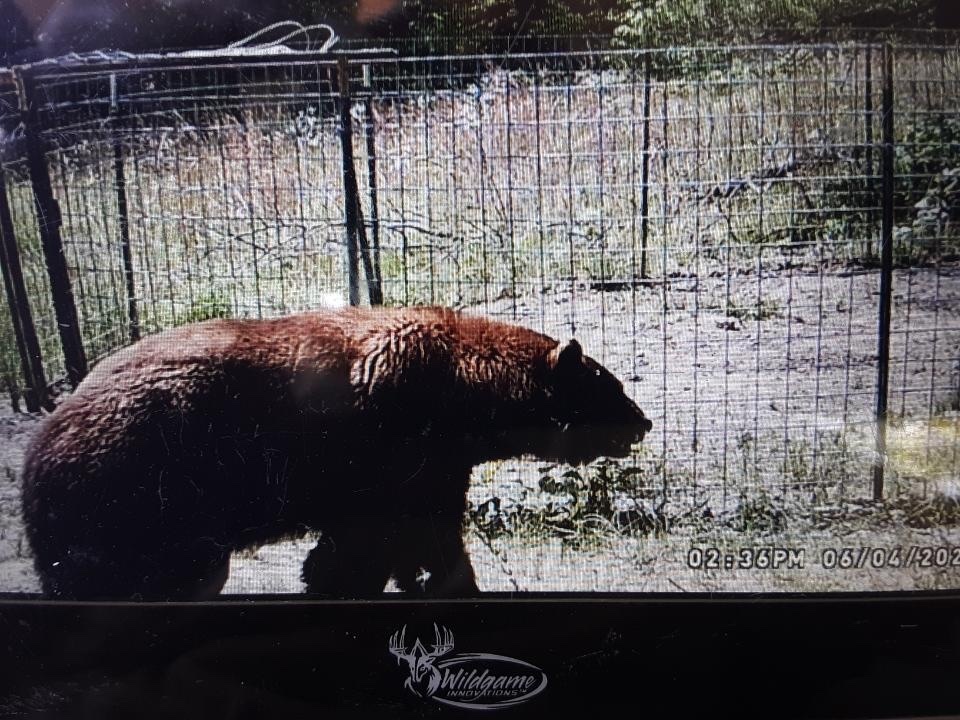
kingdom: Animalia
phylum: Chordata
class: Mammalia
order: Carnivora
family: Ursidae
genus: Ursus
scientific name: Ursus americanus
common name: American black bear
